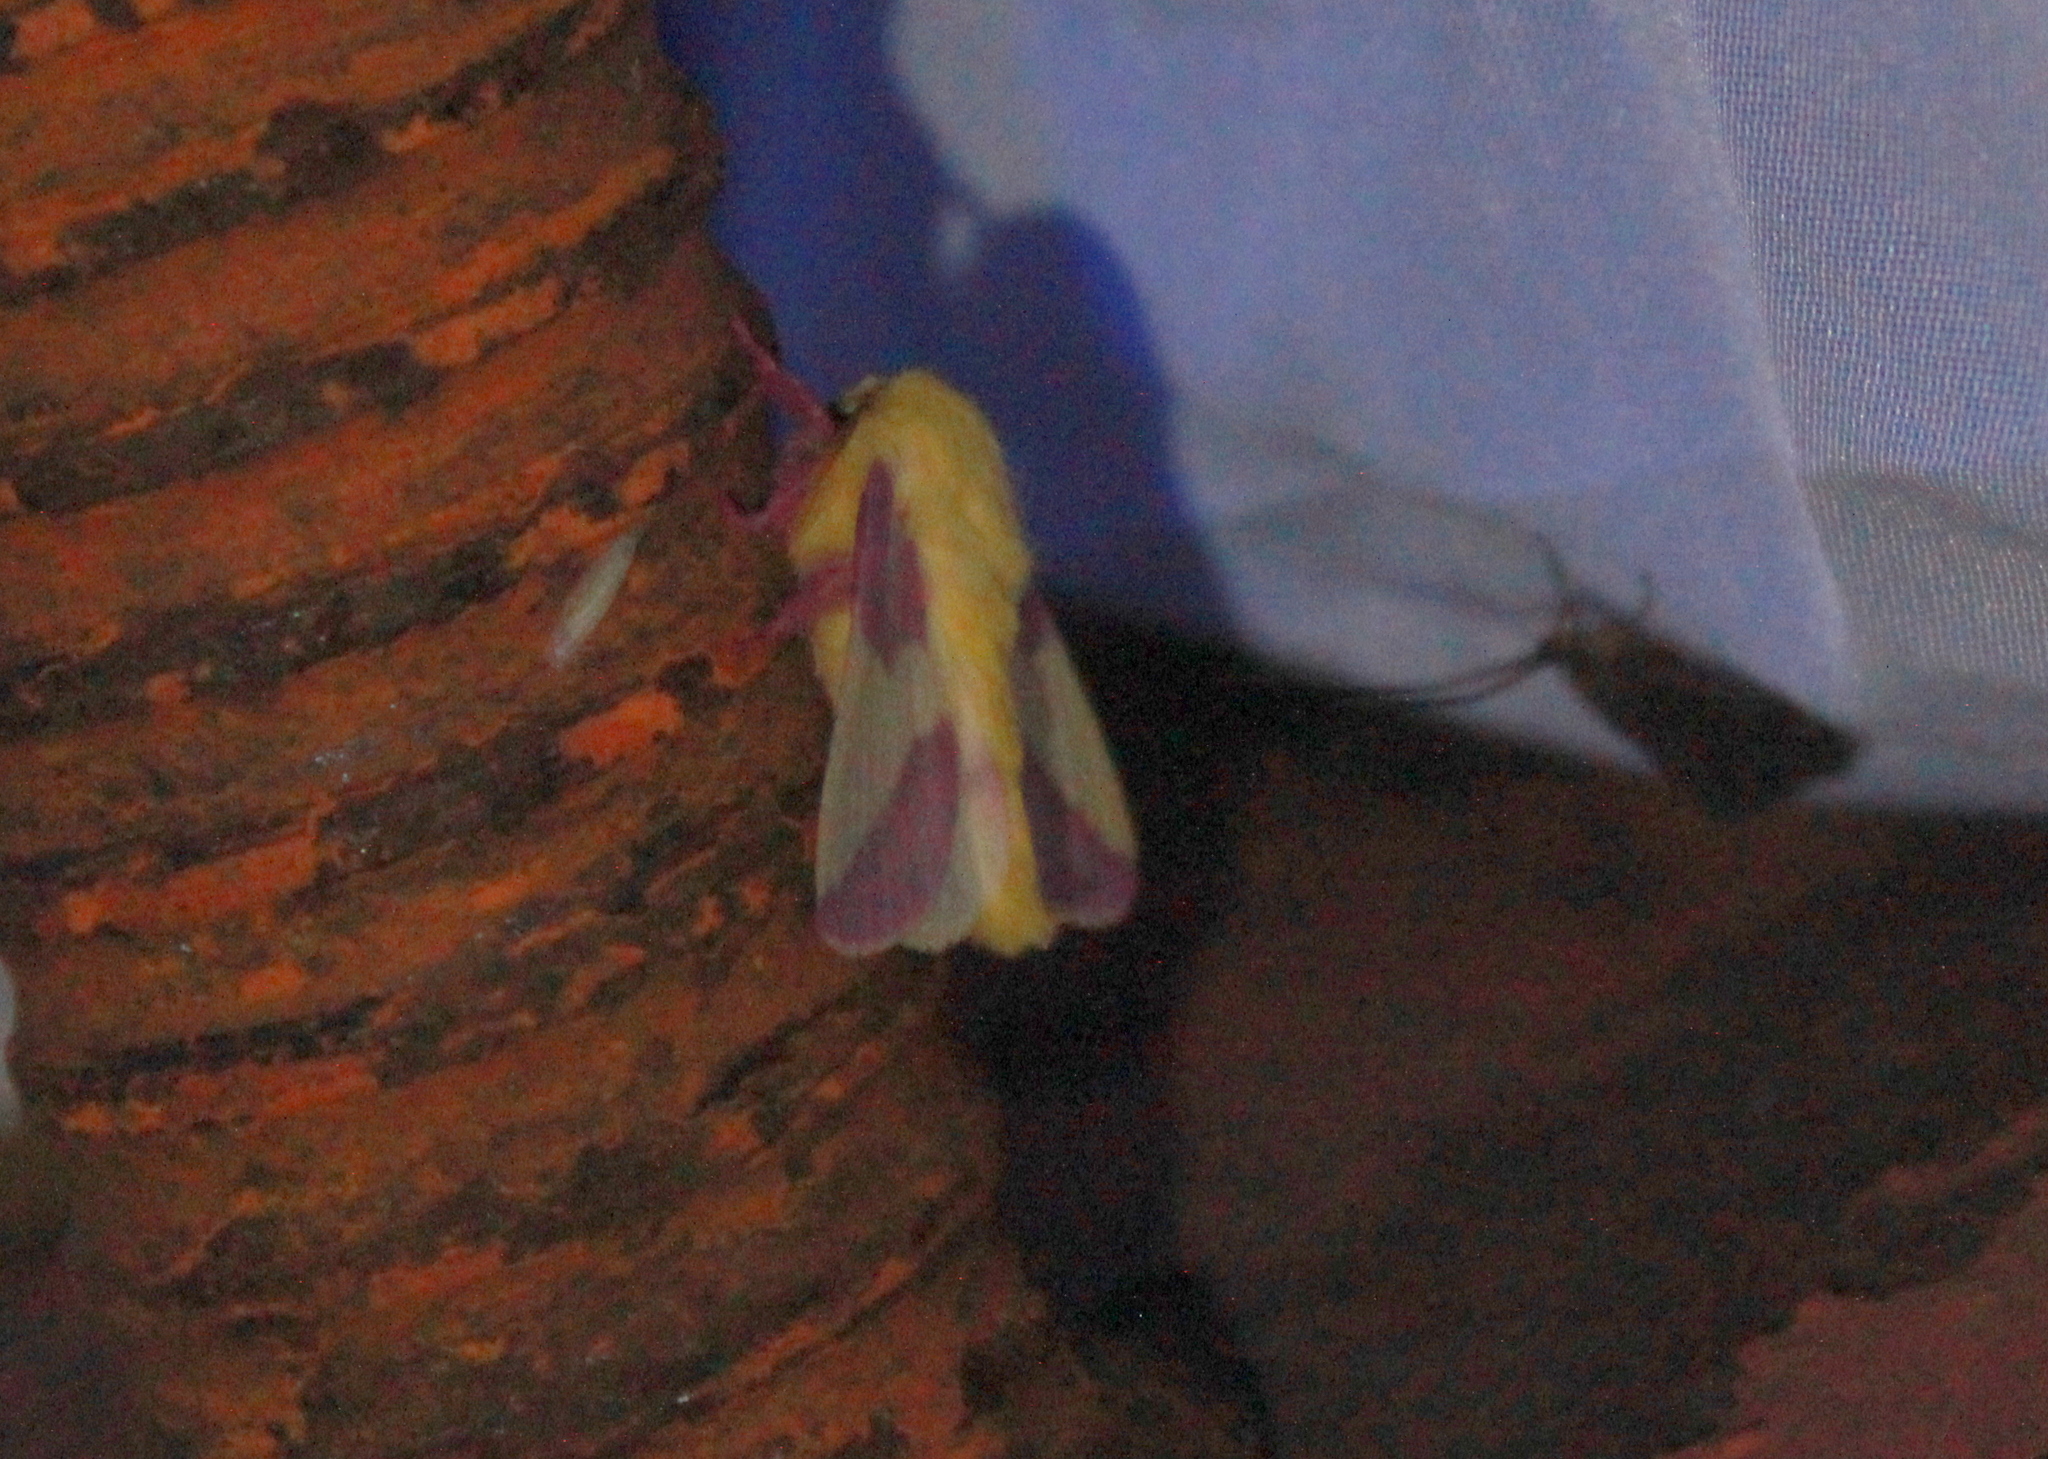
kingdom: Animalia
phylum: Arthropoda
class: Insecta
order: Lepidoptera
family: Saturniidae
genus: Dryocampa
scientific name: Dryocampa rubicunda
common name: Rosy maple moth
